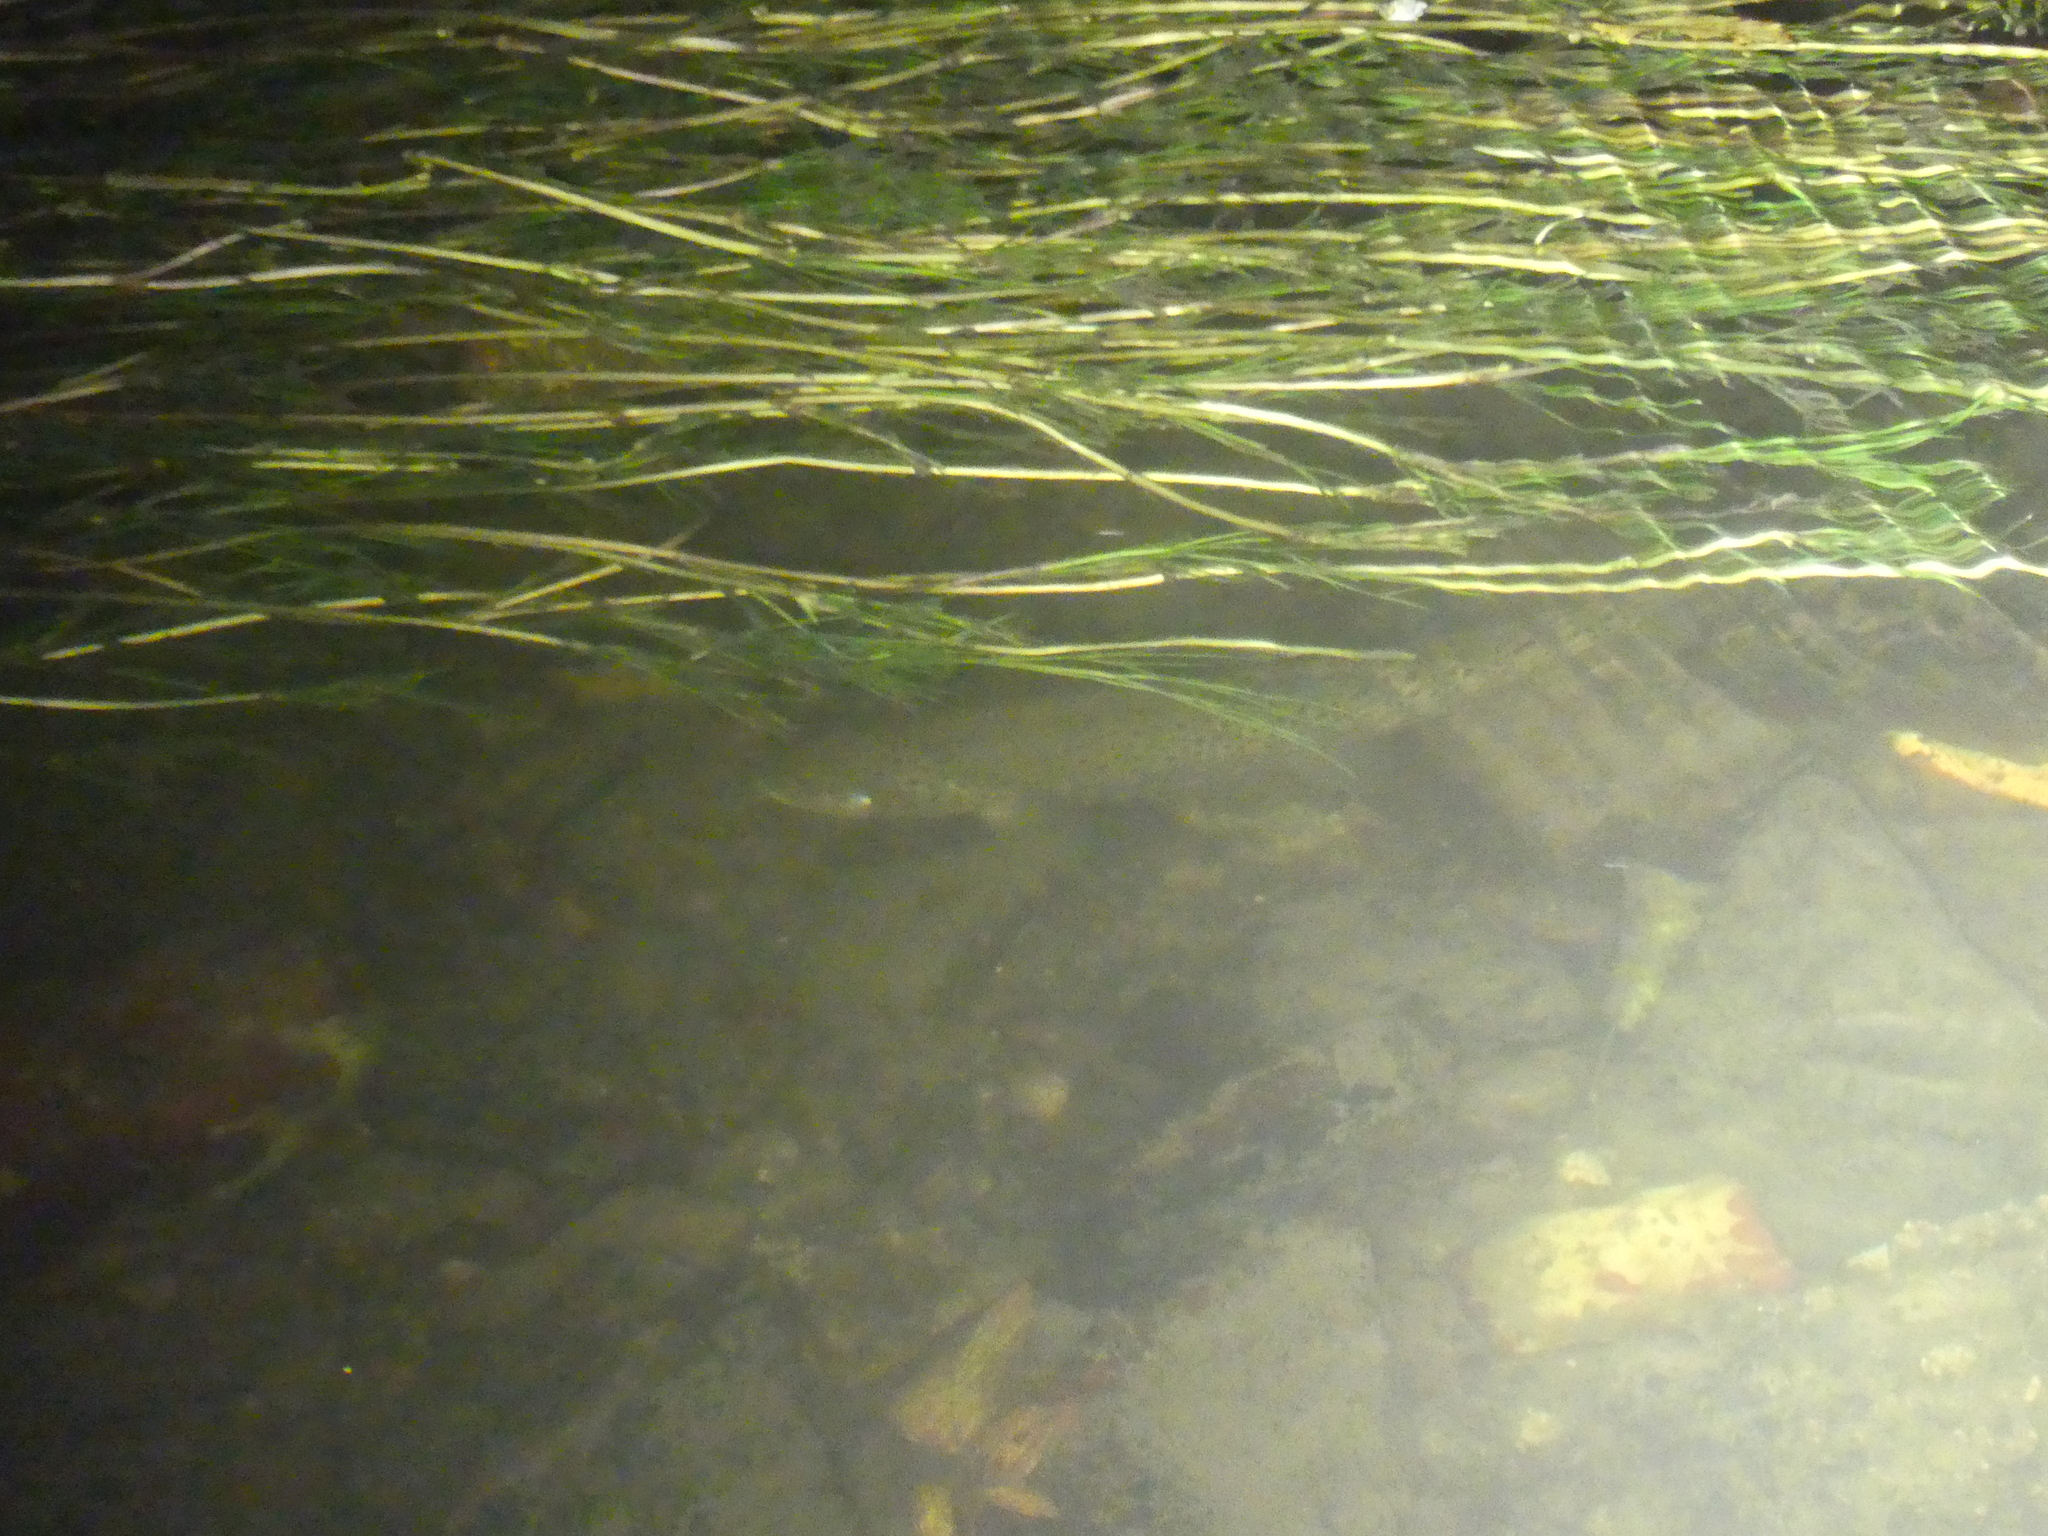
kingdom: Animalia
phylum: Chordata
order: Salmoniformes
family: Salmonidae
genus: Salmo
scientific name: Salmo trutta
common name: Brown trout
